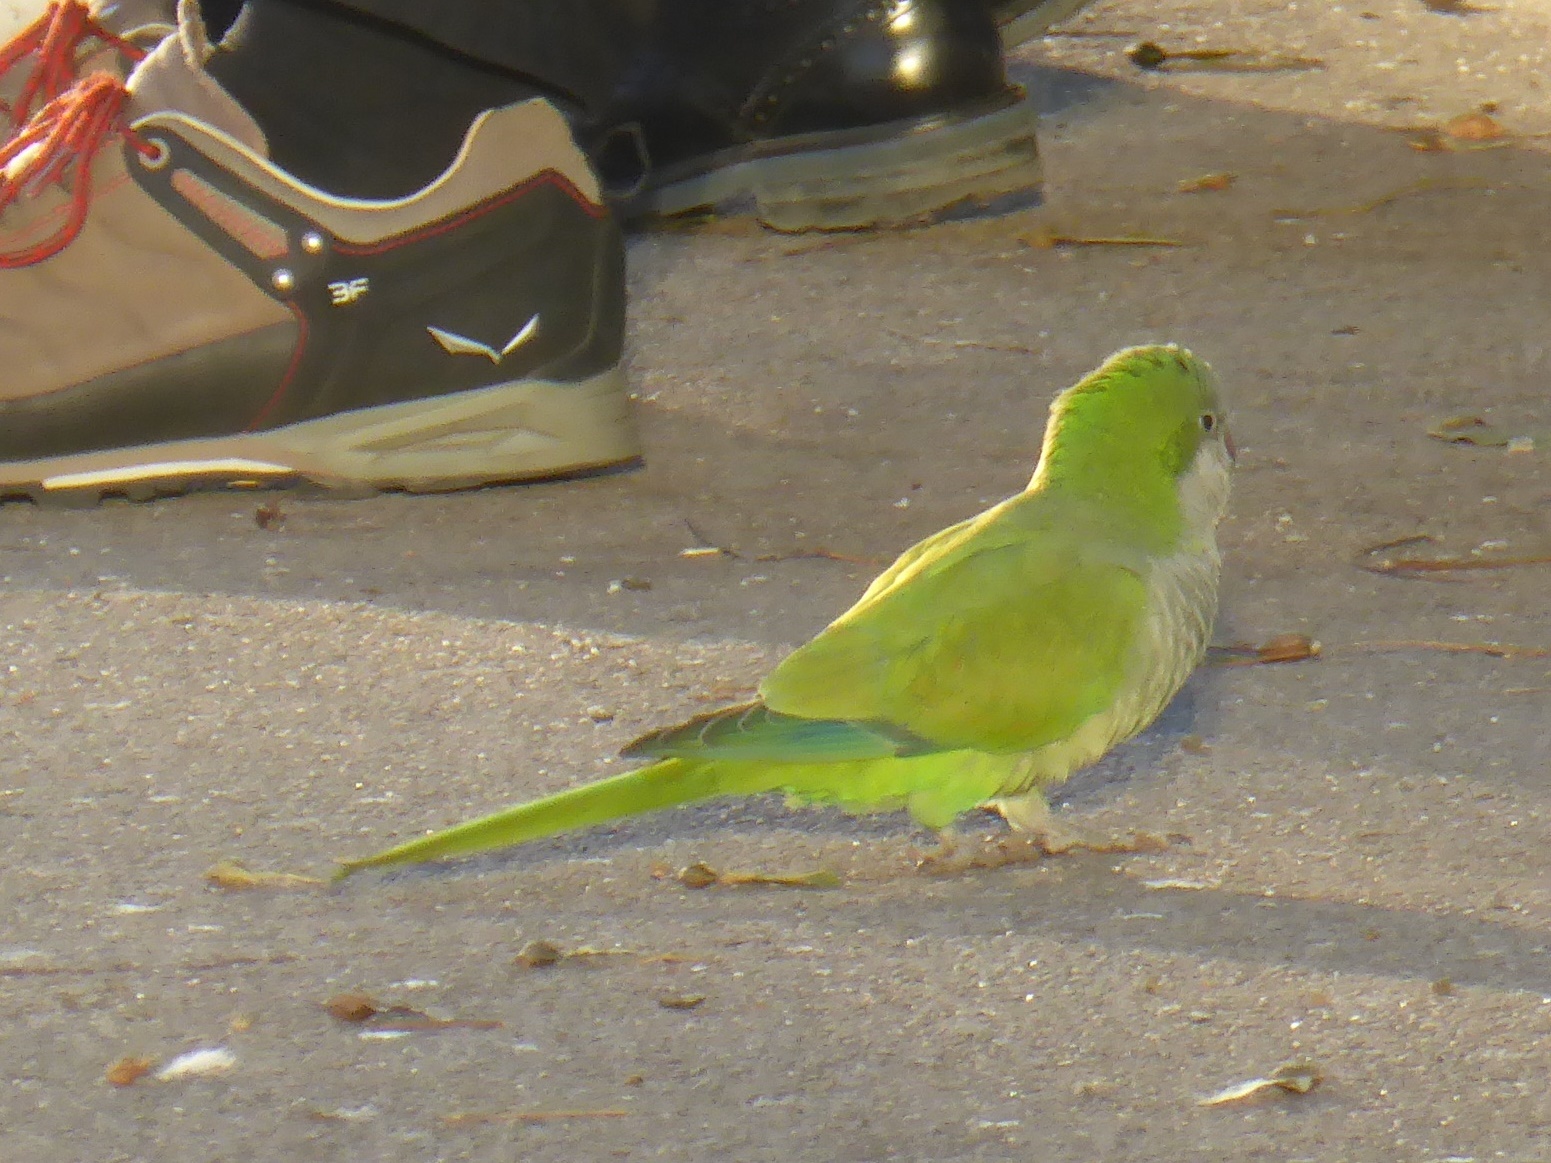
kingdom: Animalia
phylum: Chordata
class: Aves
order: Psittaciformes
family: Psittacidae
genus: Myiopsitta
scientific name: Myiopsitta monachus
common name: Monk parakeet
